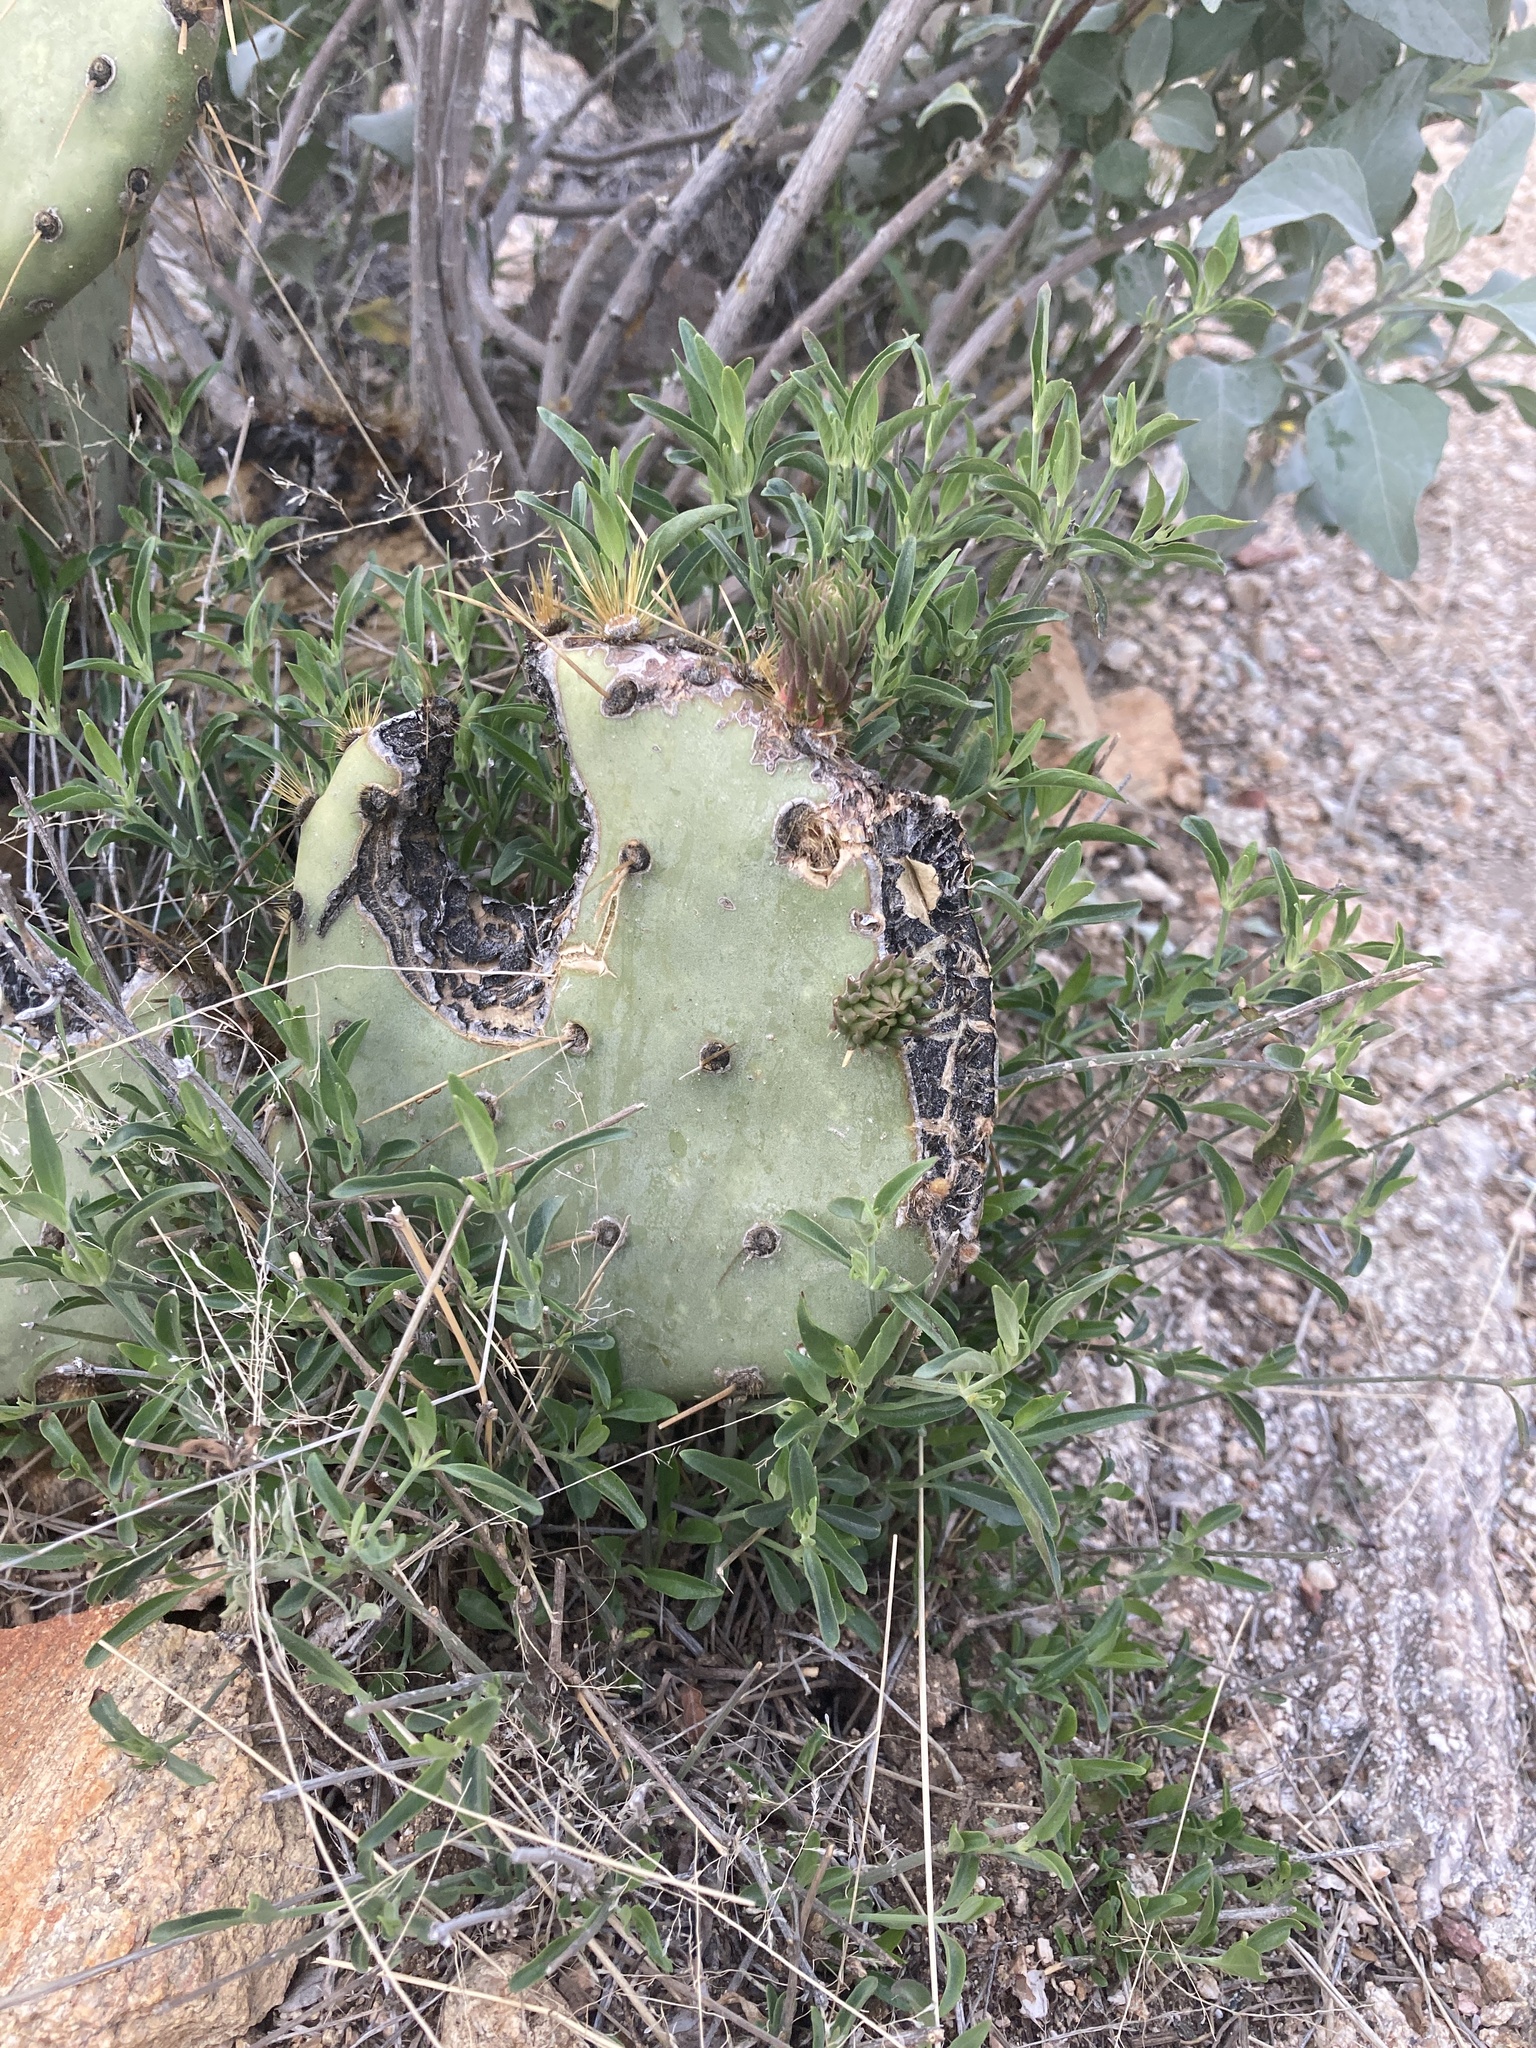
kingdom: Plantae
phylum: Tracheophyta
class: Magnoliopsida
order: Lamiales
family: Acanthaceae
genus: Justicia
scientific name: Justicia longii
